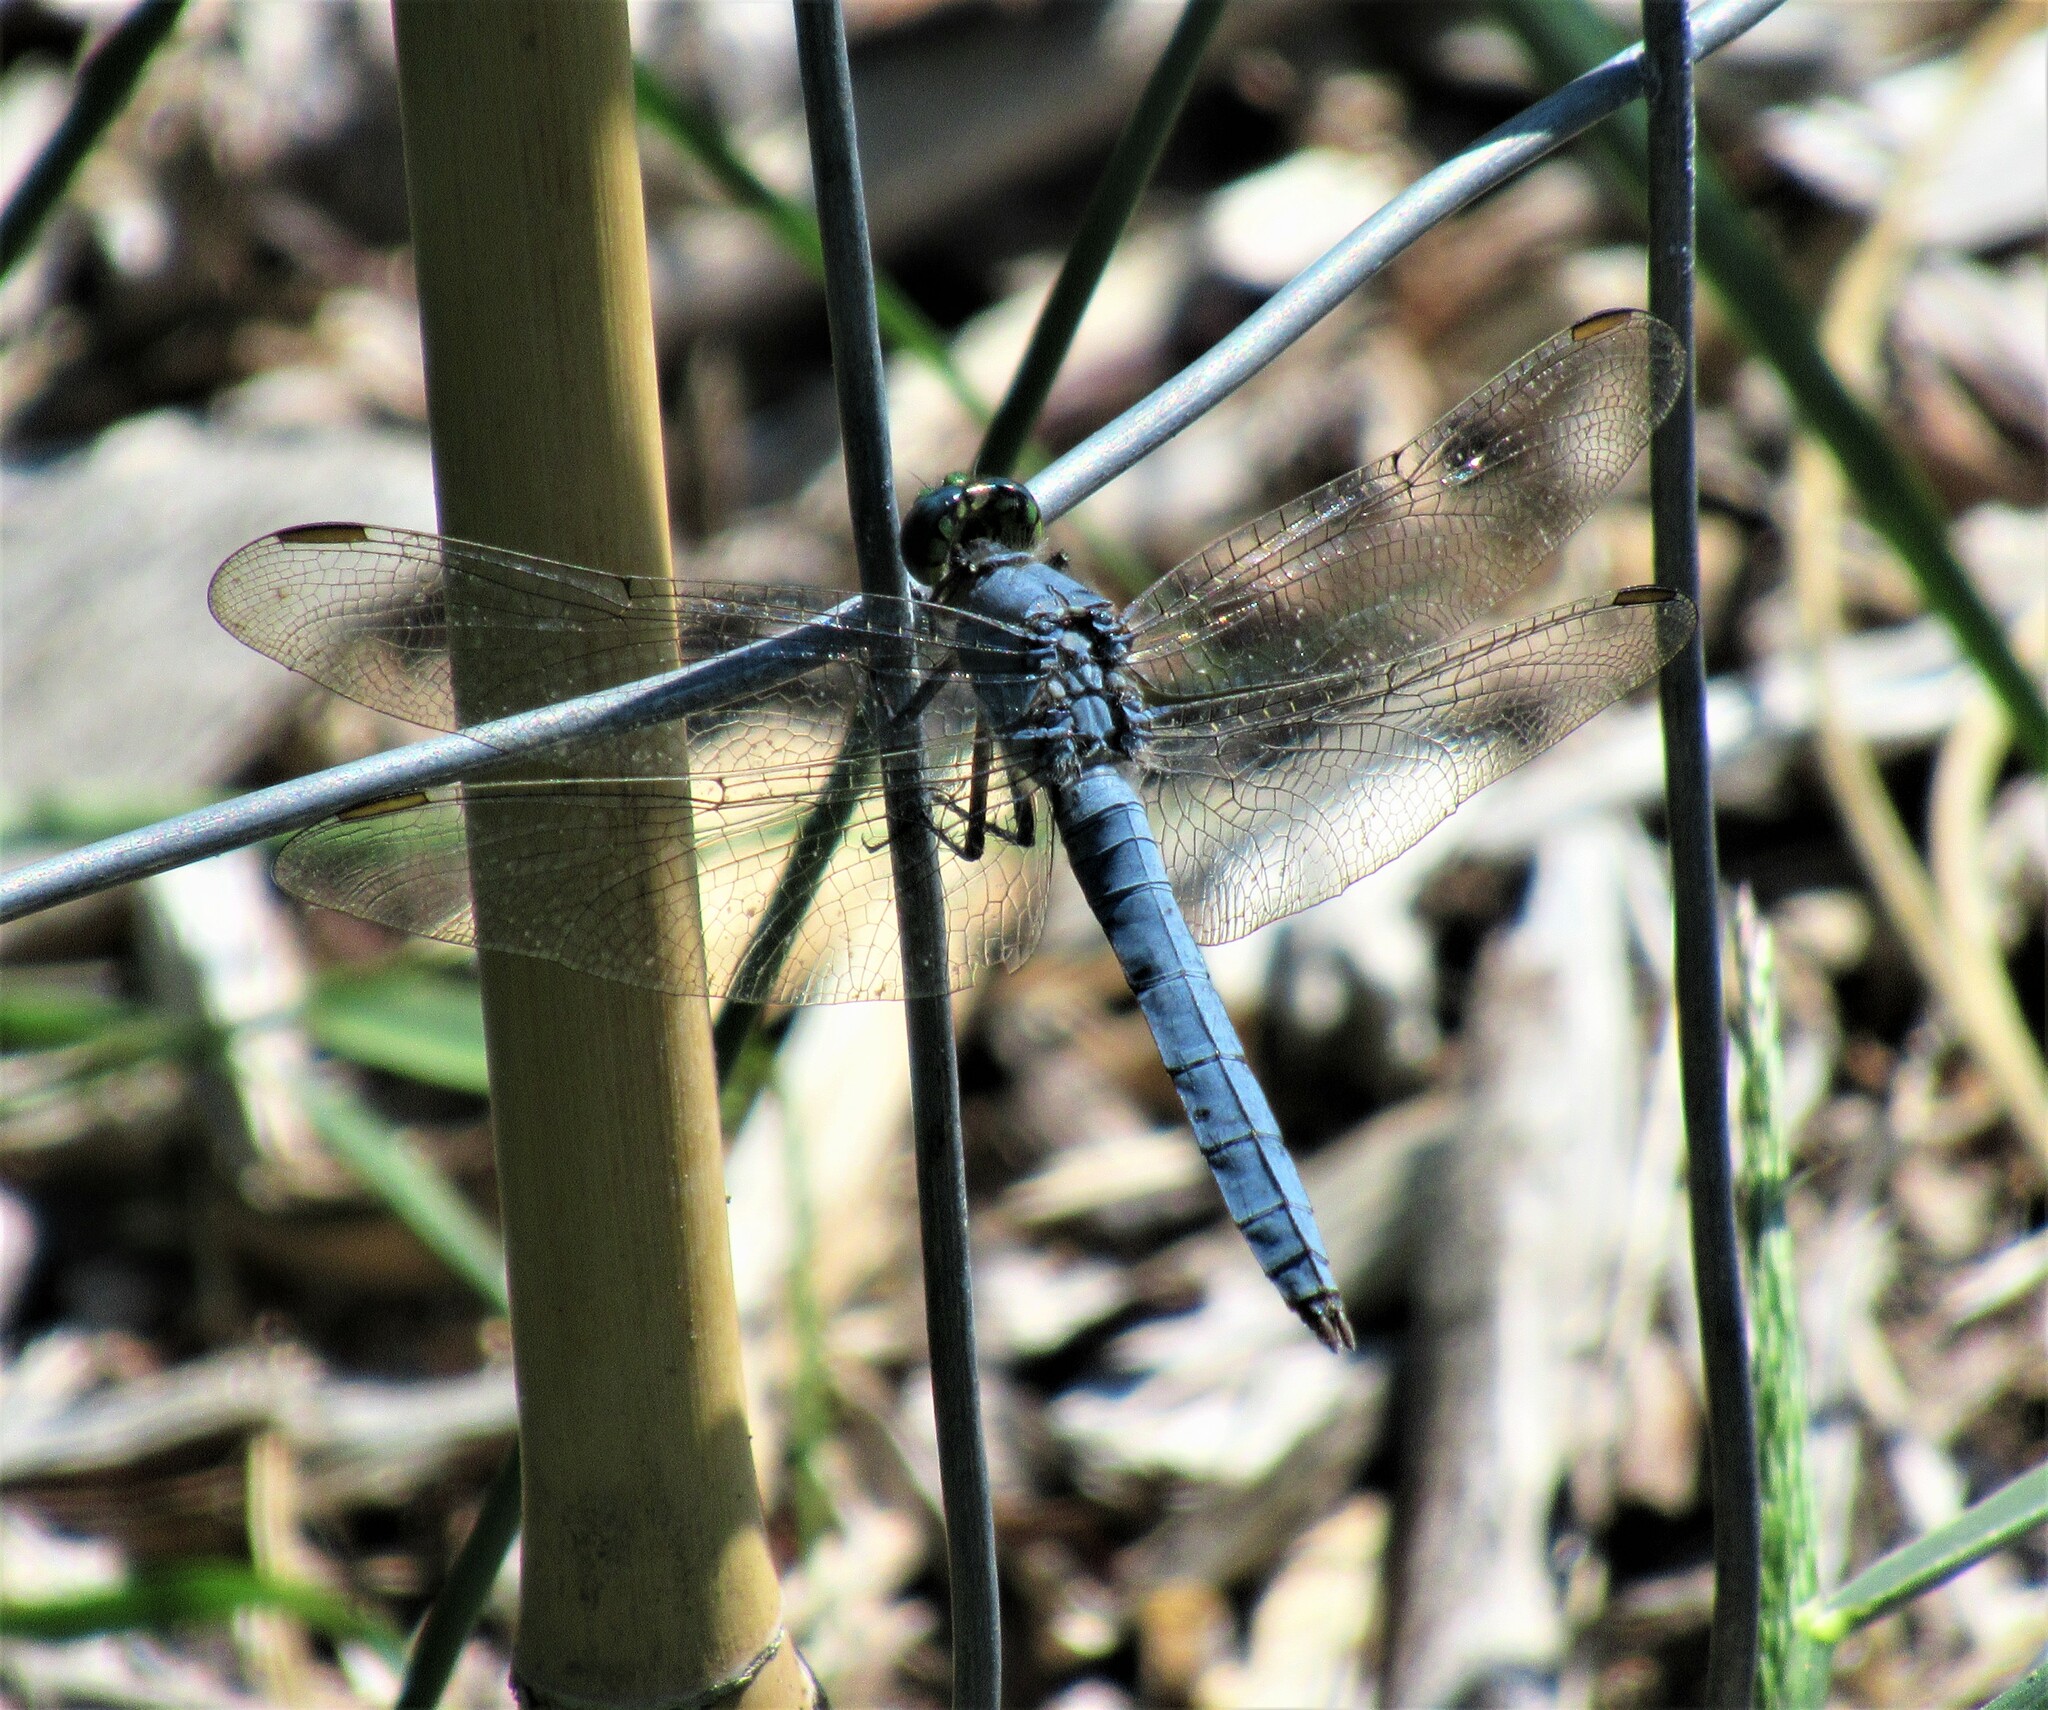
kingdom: Animalia
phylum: Arthropoda
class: Insecta
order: Odonata
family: Libellulidae
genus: Erythemis
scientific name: Erythemis collocata
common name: Western pondhawk
